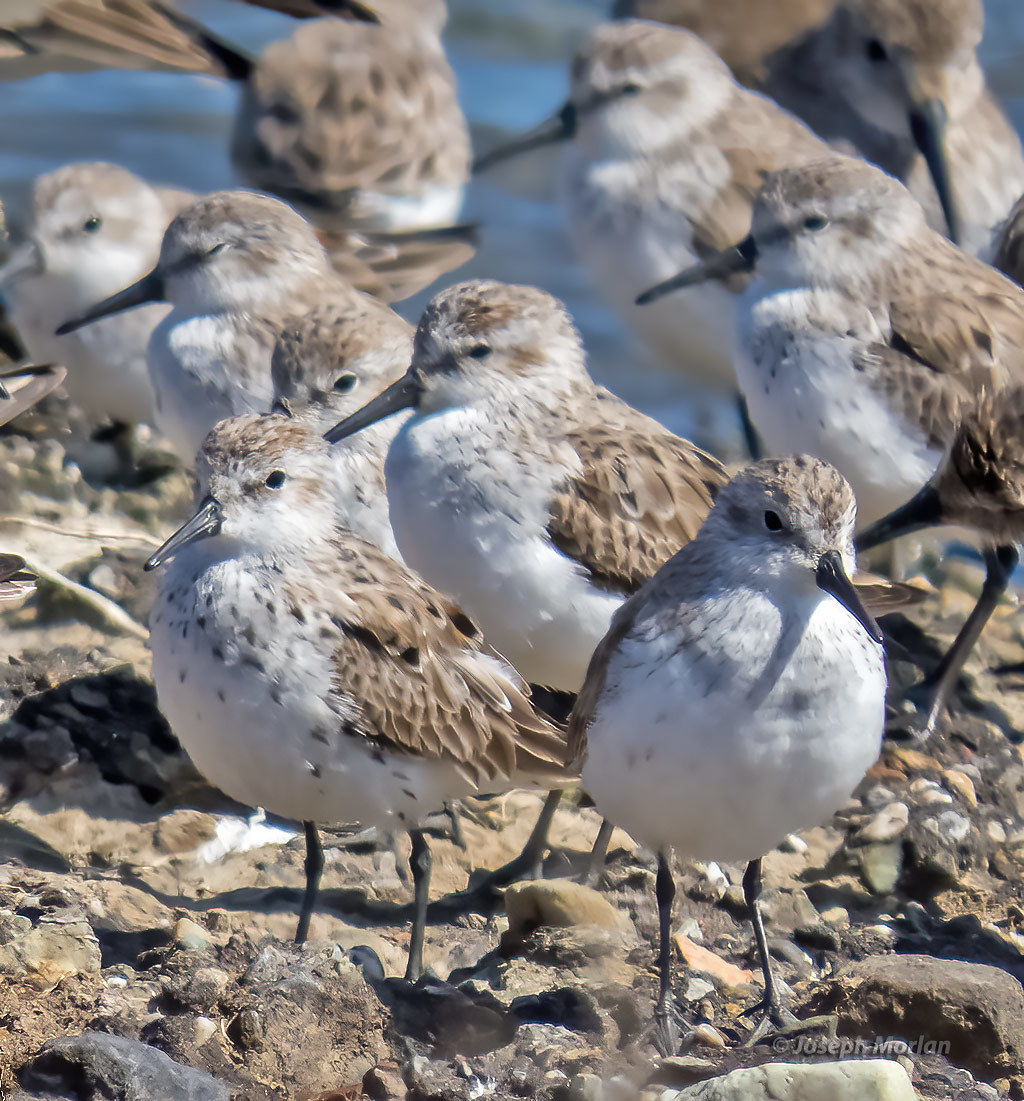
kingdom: Animalia
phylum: Chordata
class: Aves
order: Charadriiformes
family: Scolopacidae
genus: Calidris
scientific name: Calidris mauri
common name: Western sandpiper
